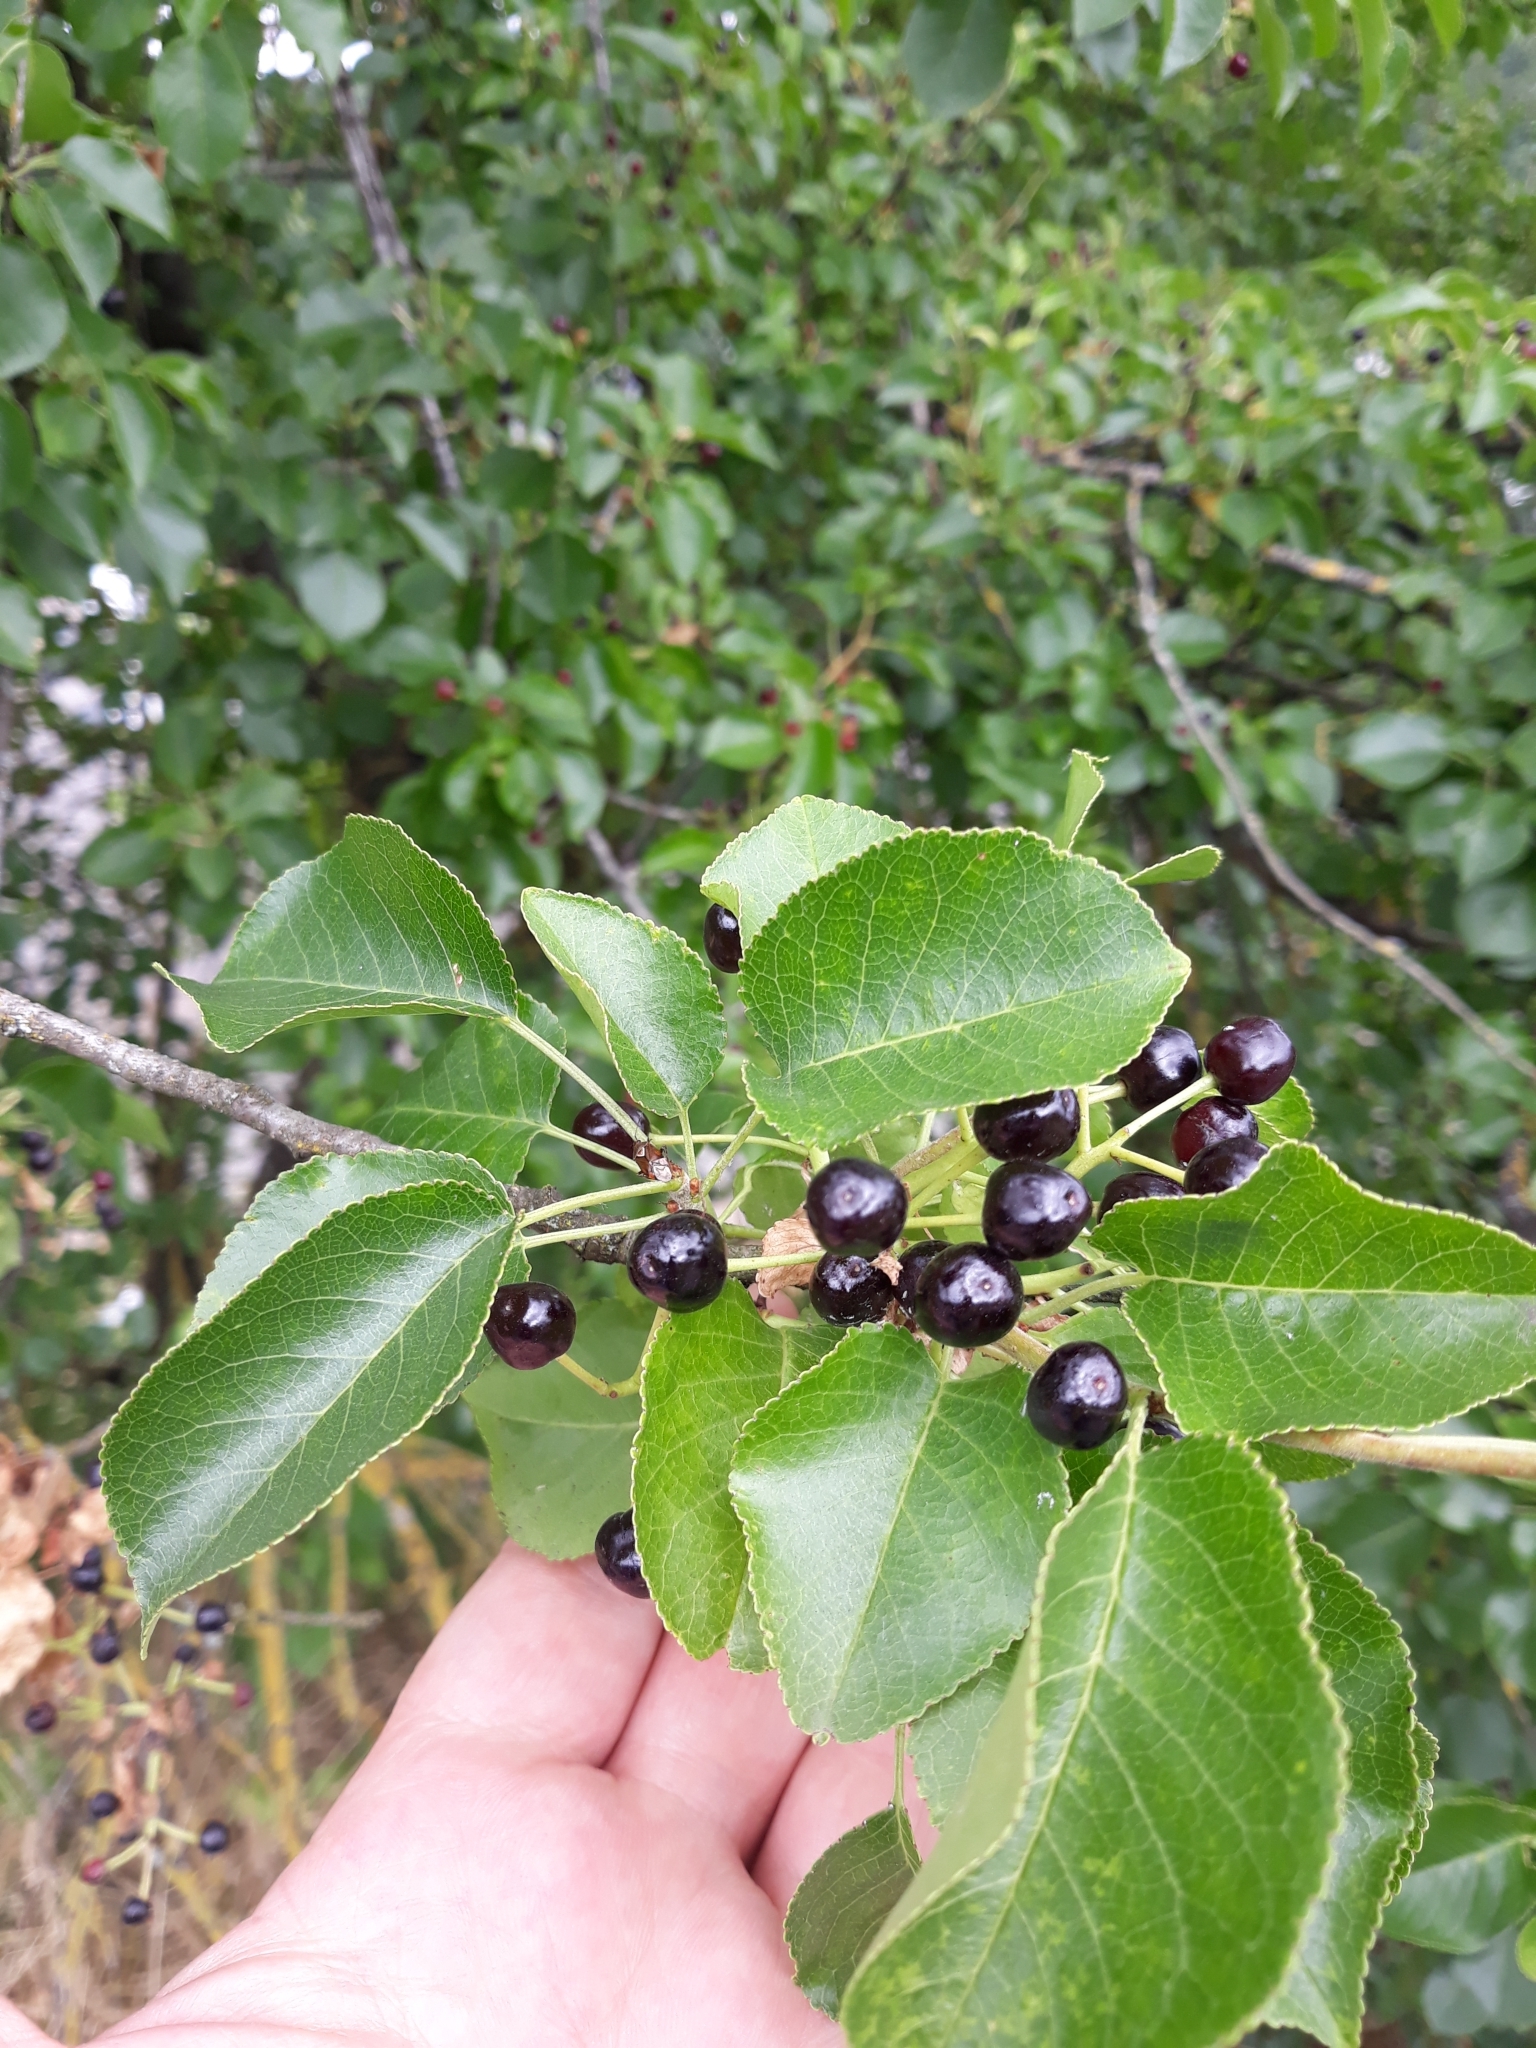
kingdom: Plantae
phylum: Tracheophyta
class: Magnoliopsida
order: Rosales
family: Rosaceae
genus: Prunus
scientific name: Prunus mahaleb
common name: Mahaleb cherry
